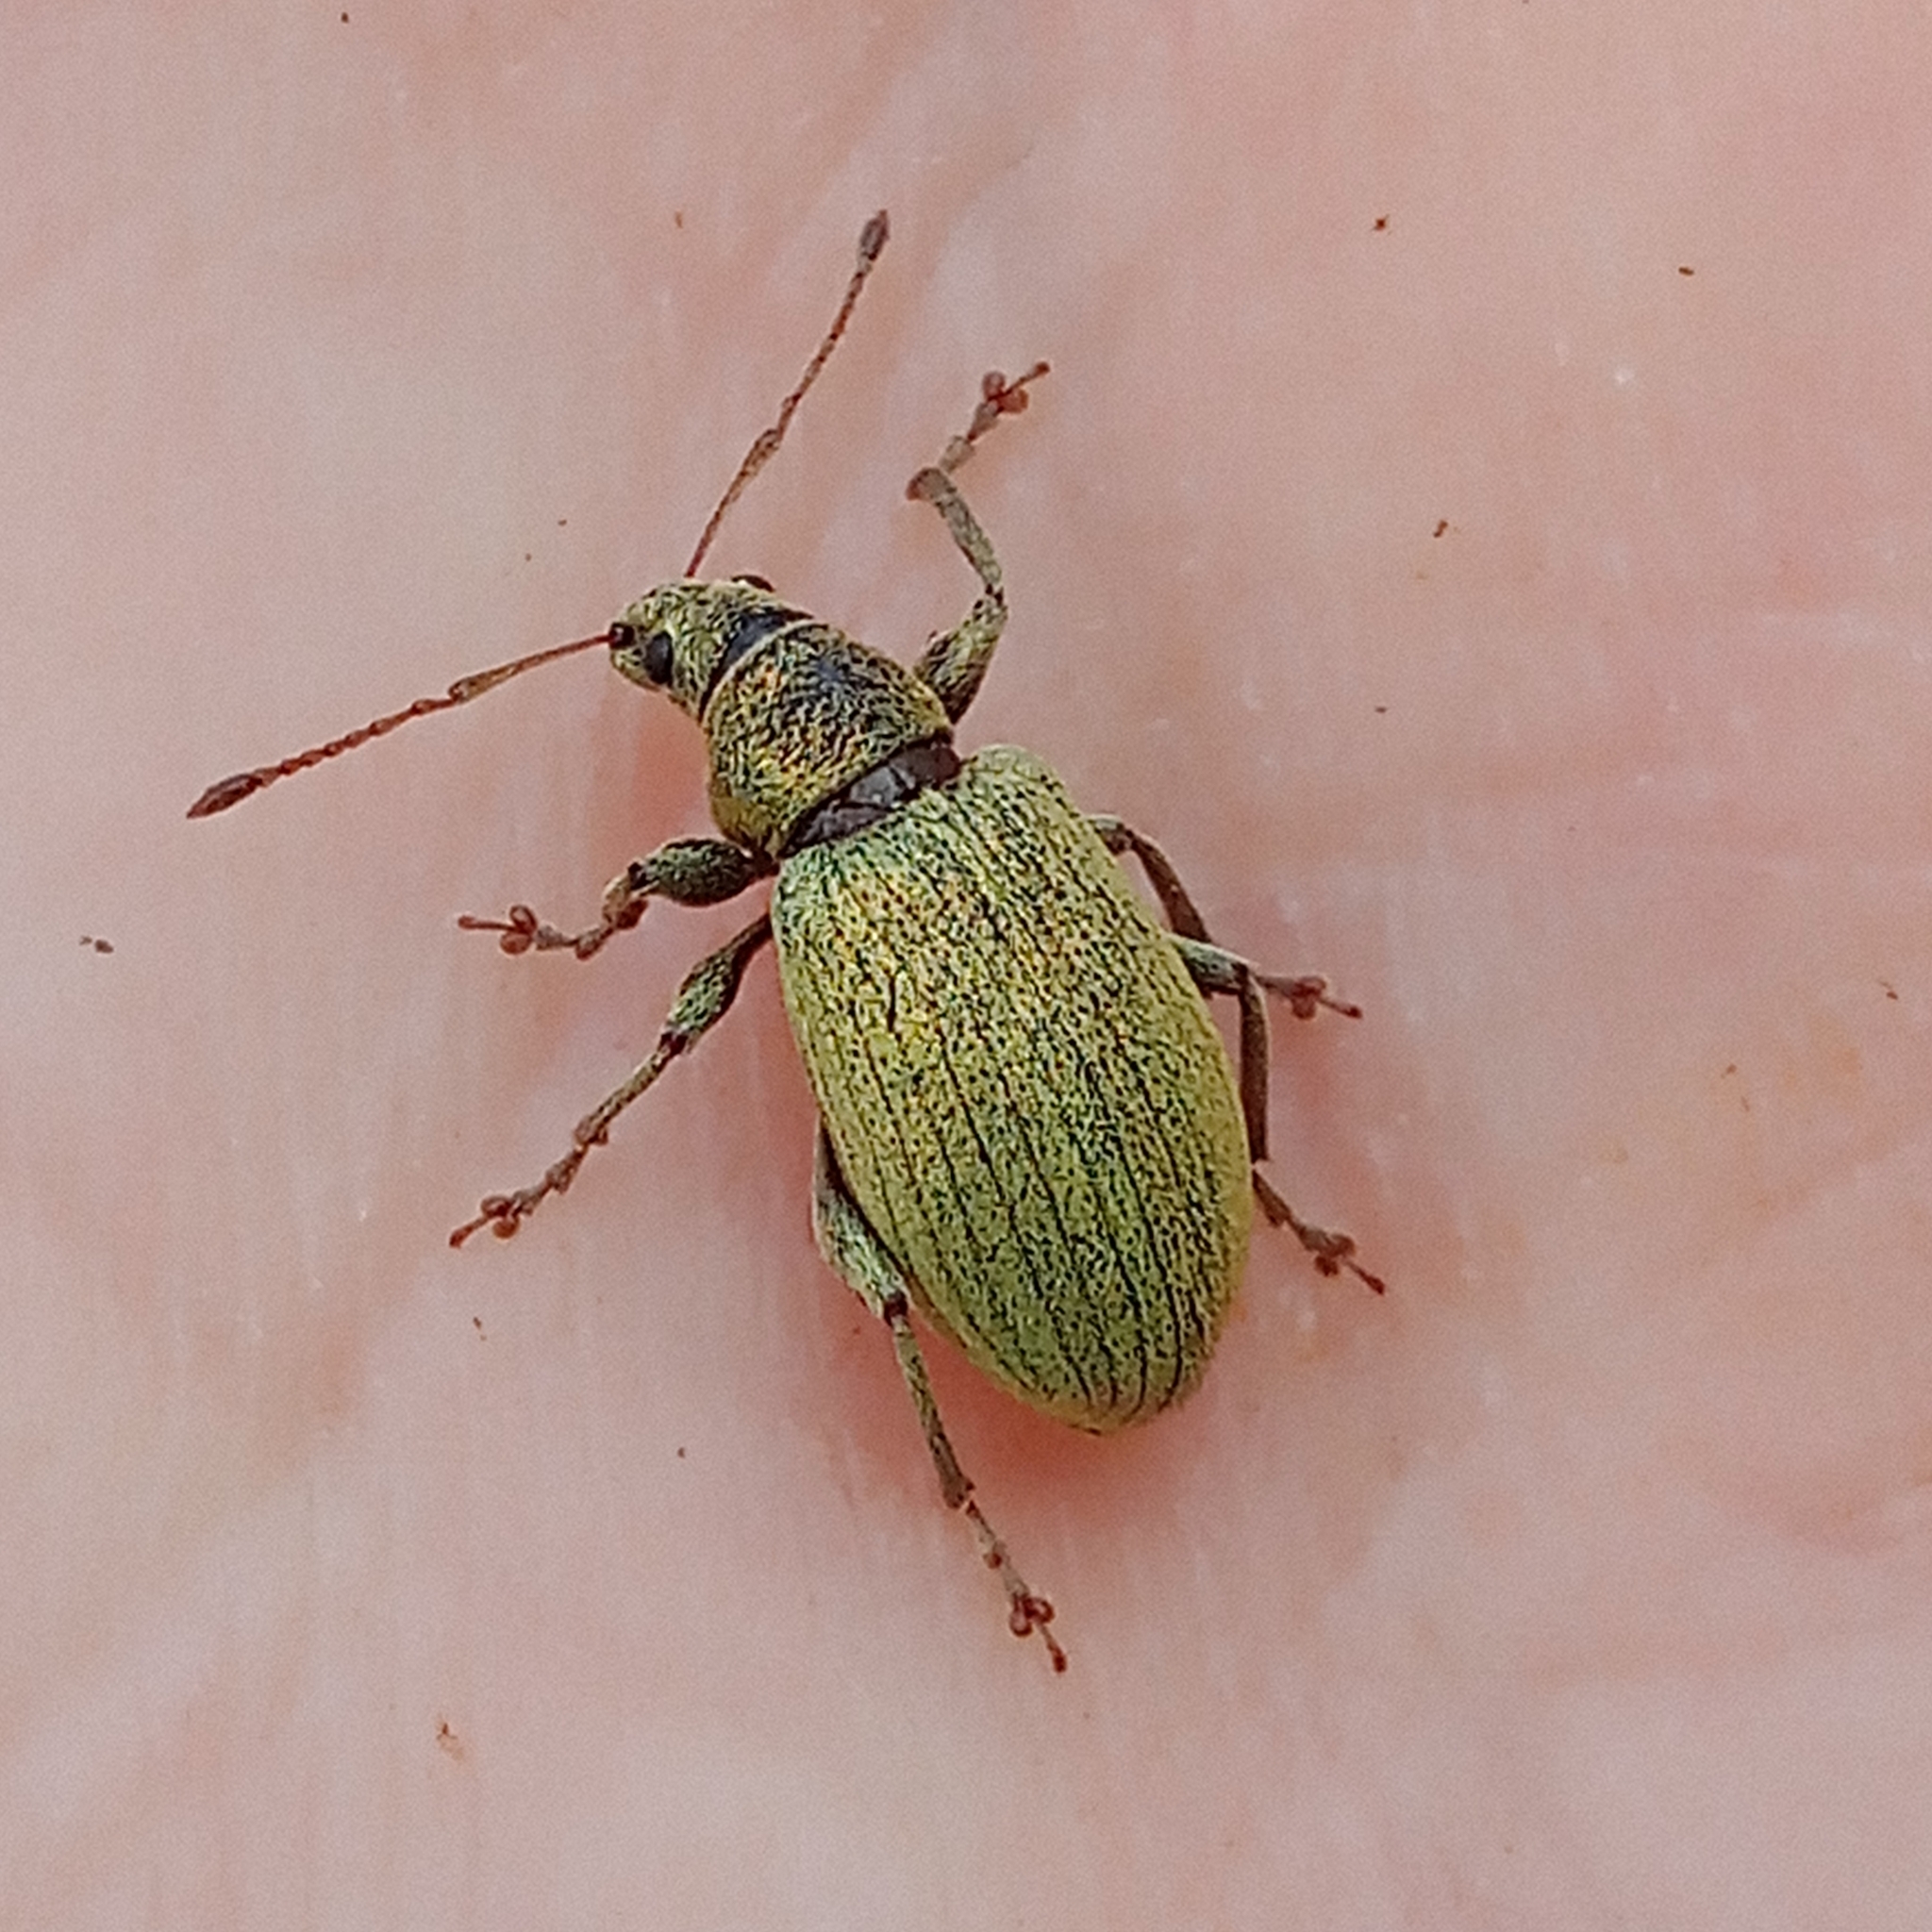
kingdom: Animalia
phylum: Arthropoda
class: Insecta
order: Coleoptera
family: Curculionidae
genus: Phyllobius
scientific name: Phyllobius pomaceus
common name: Green nettle weevil
